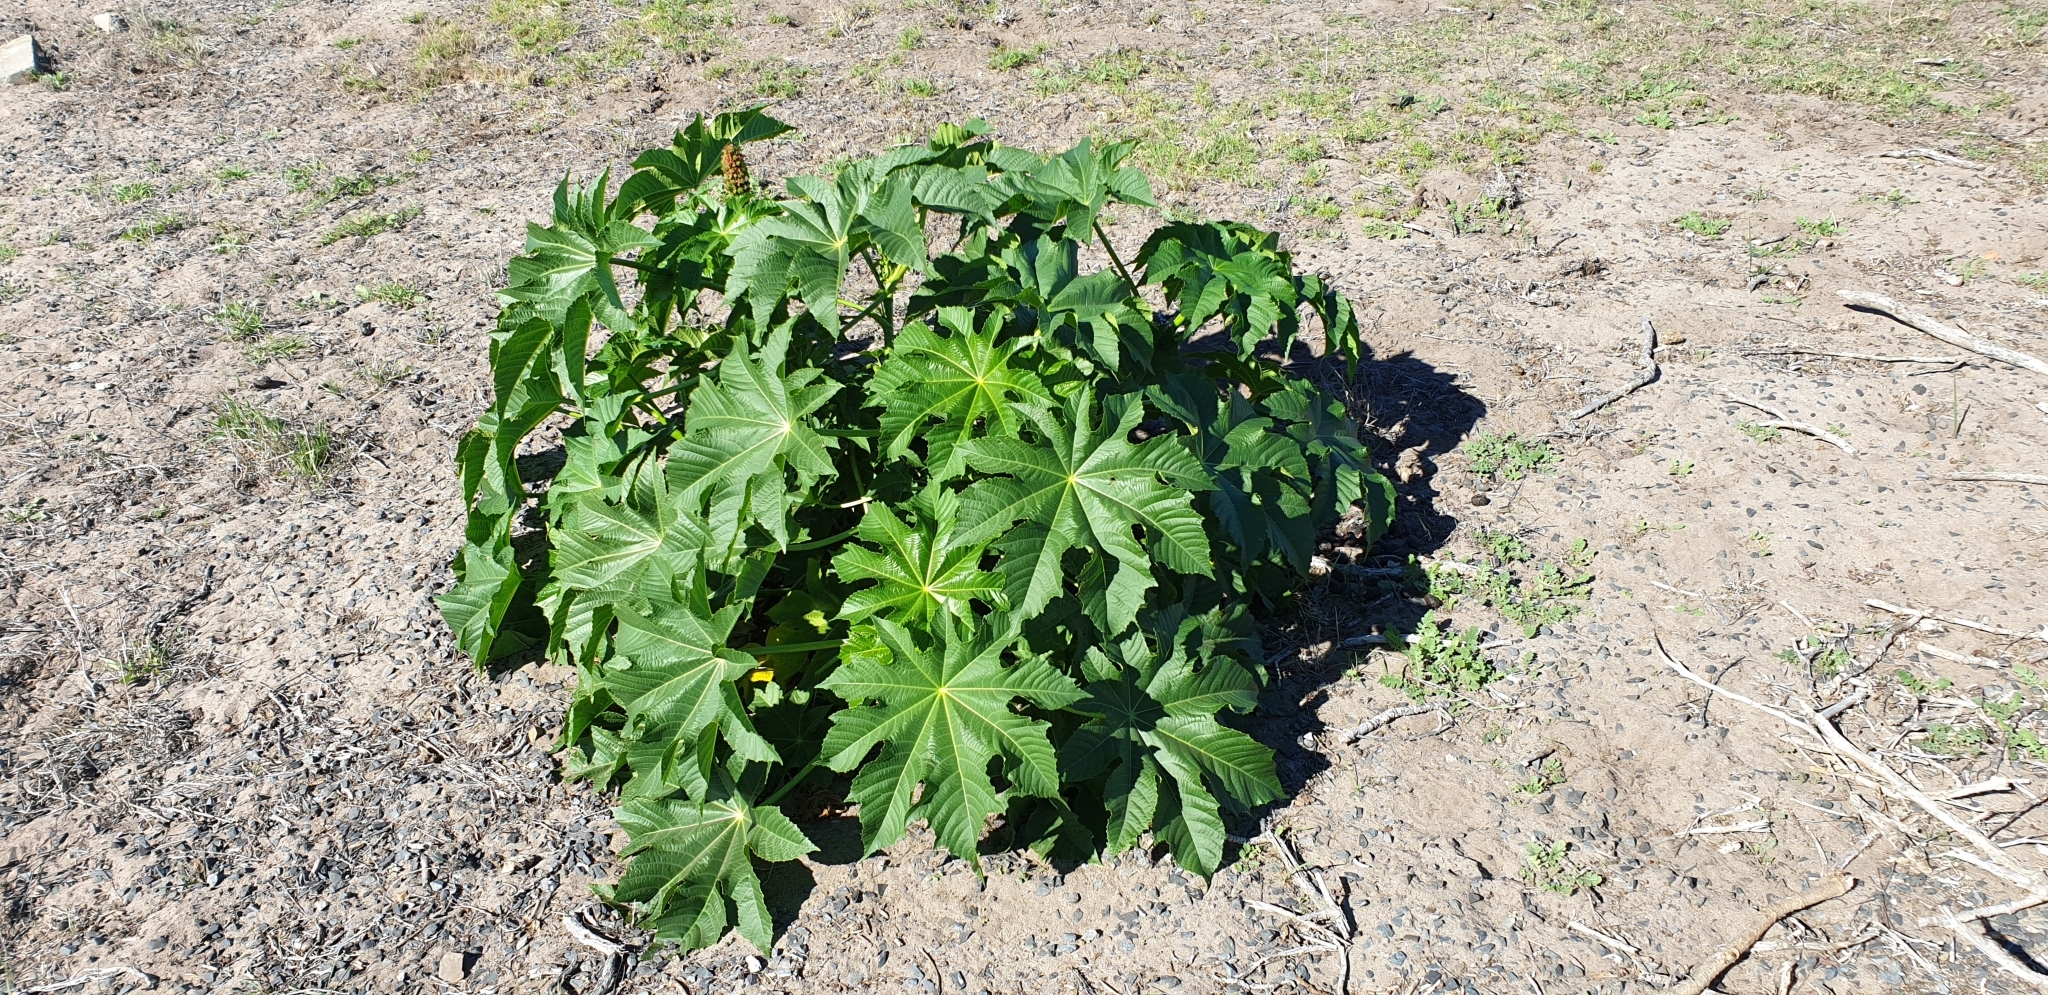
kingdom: Plantae
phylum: Tracheophyta
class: Magnoliopsida
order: Malpighiales
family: Euphorbiaceae
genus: Ricinus
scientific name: Ricinus communis
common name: Castor-oil-plant
